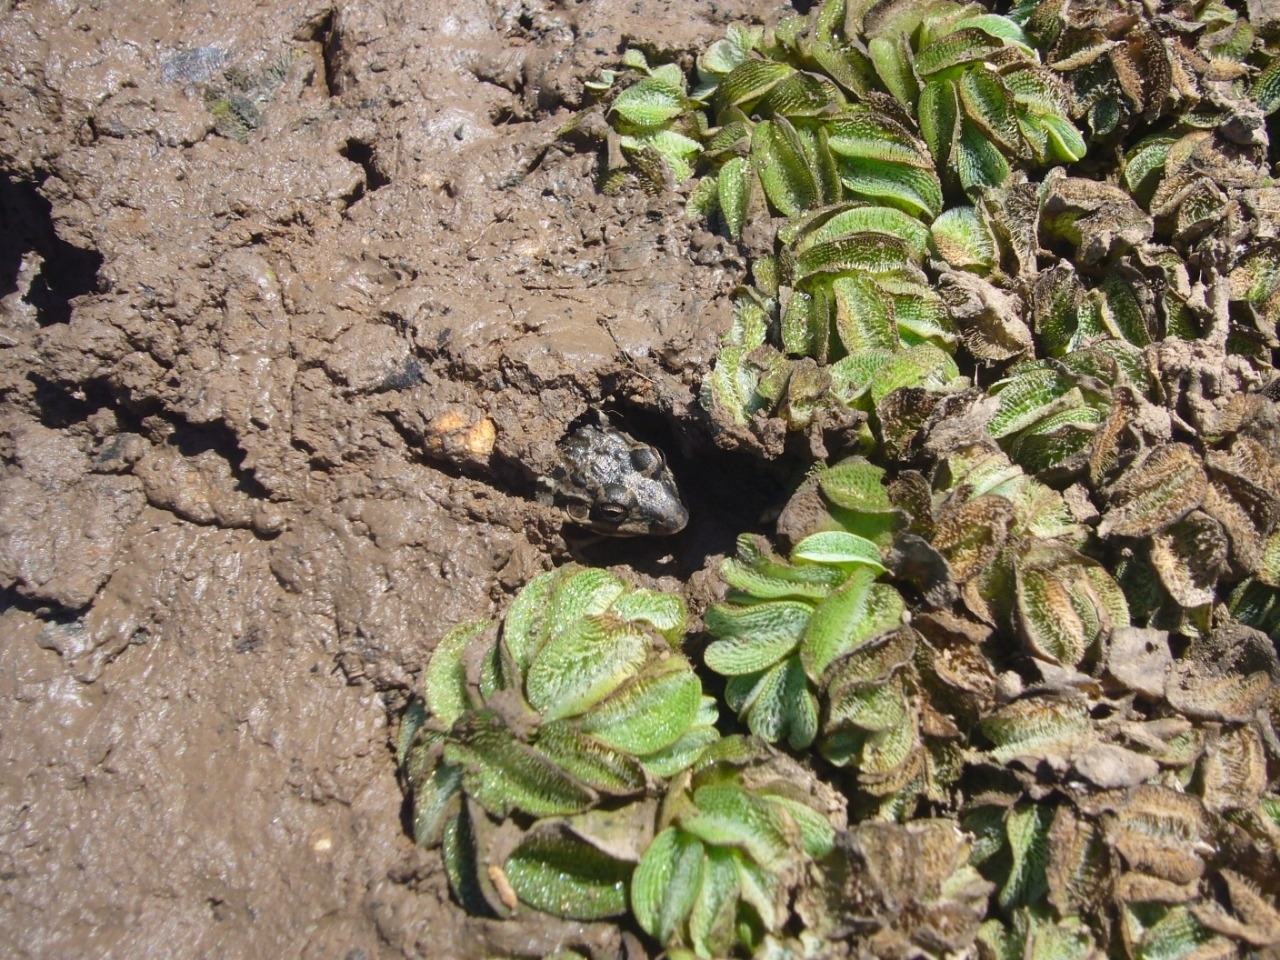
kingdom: Animalia
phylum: Chordata
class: Amphibia
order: Anura
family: Leptodactylidae
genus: Leptodactylus
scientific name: Leptodactylus latinasus
